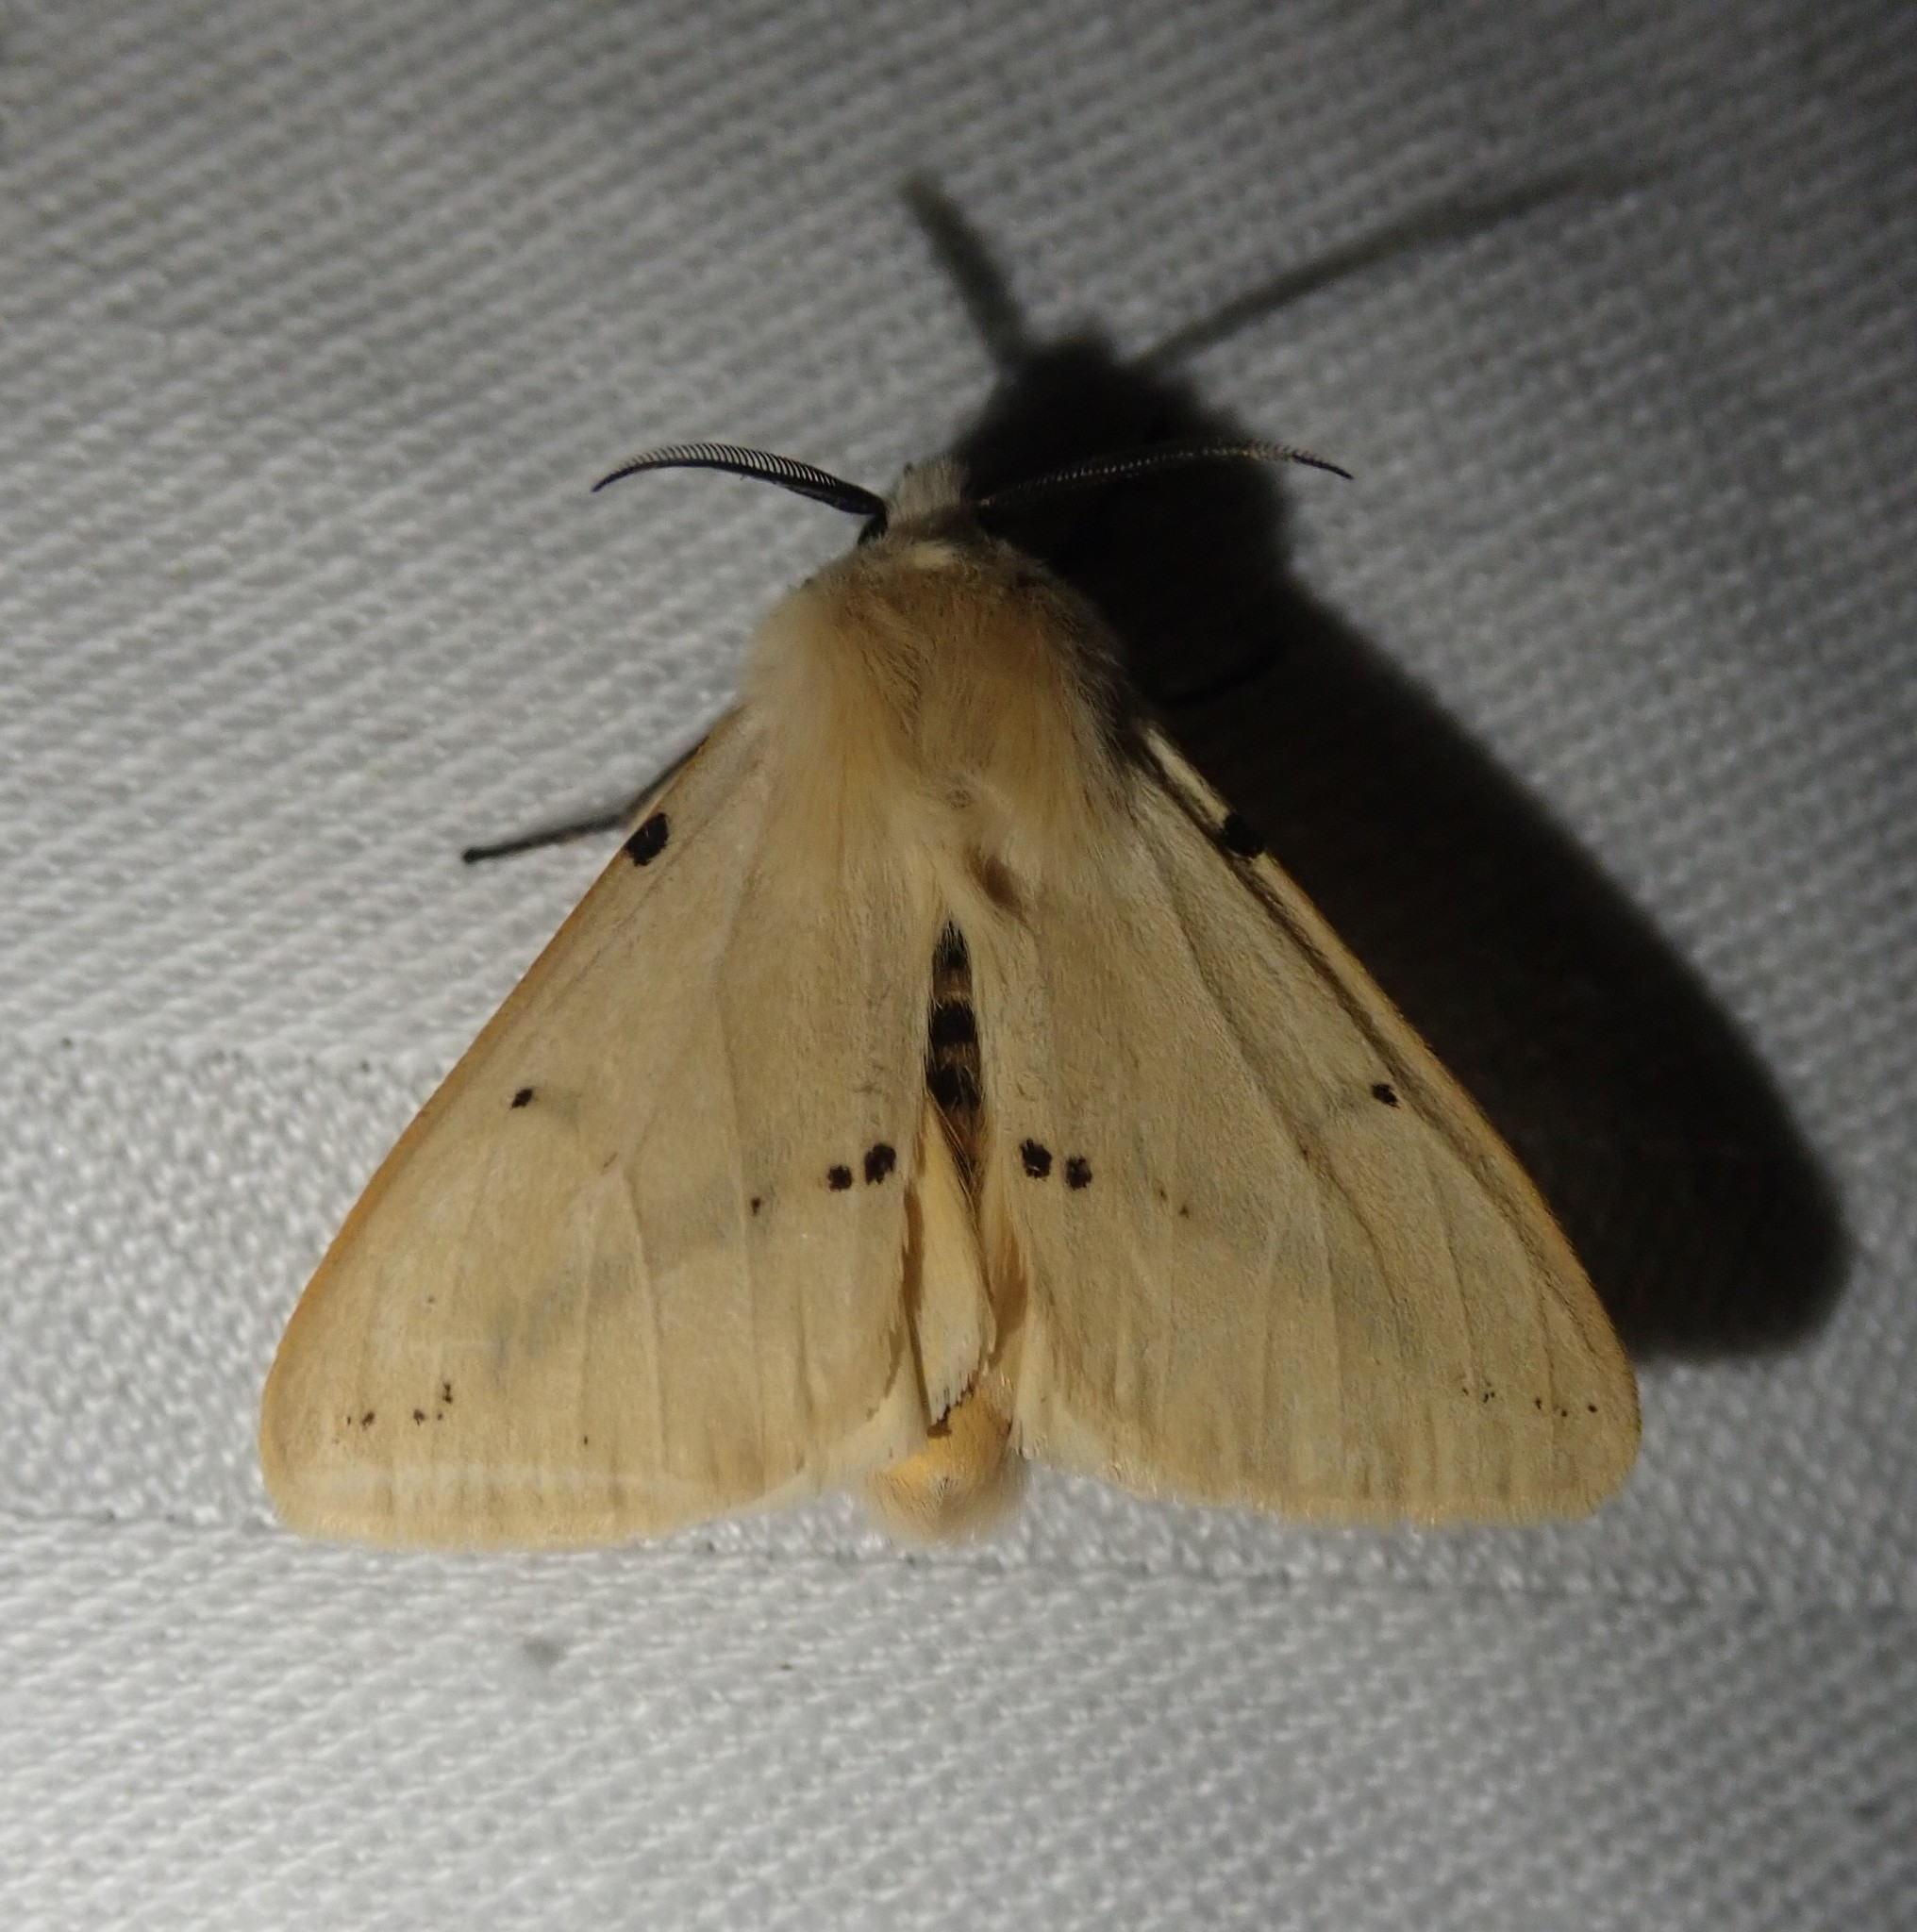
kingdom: Animalia
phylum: Arthropoda
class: Insecta
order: Lepidoptera
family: Erebidae
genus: Spilarctia
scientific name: Spilarctia lutea
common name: Buff ermine
